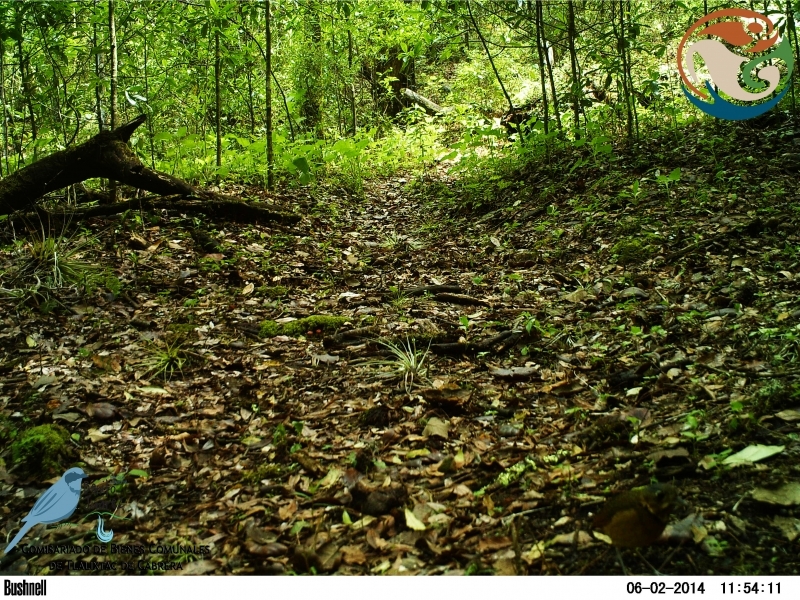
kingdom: Animalia
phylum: Chordata
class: Aves
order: Passeriformes
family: Grallariidae
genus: Grallaria
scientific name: Grallaria guatimalensis
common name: Scaled antpitta
